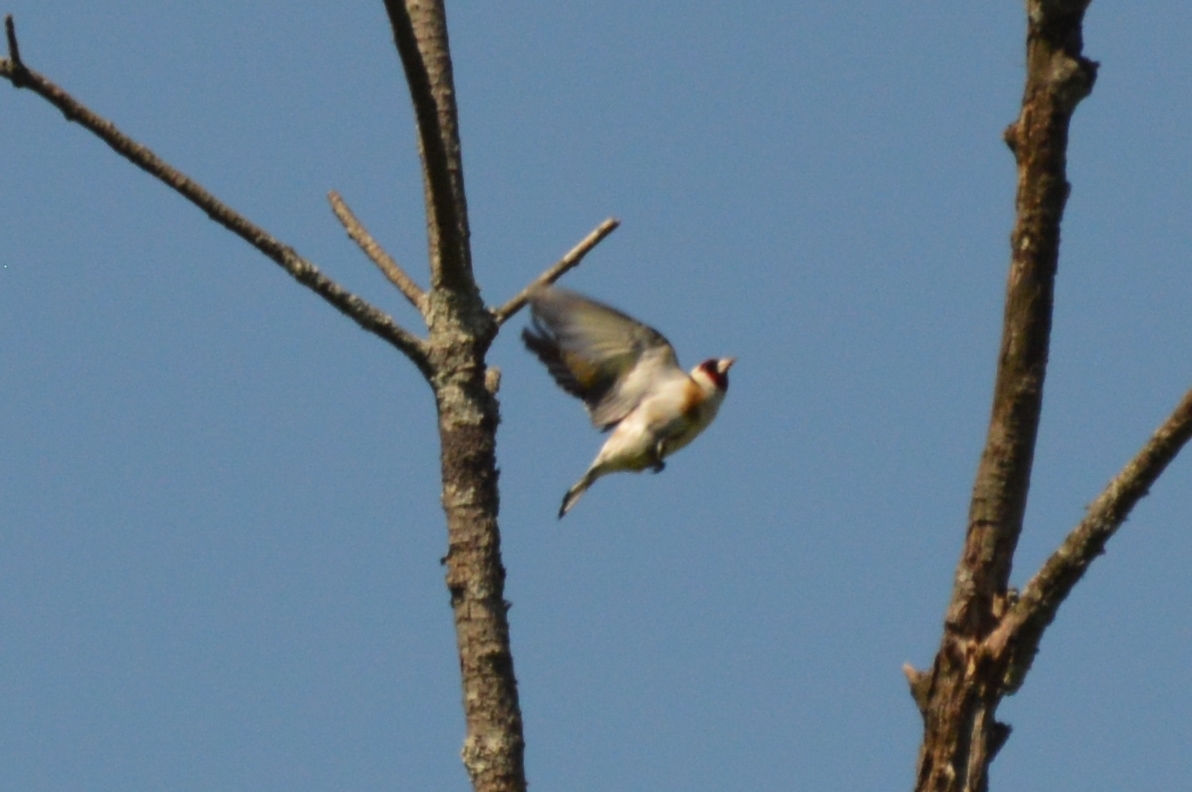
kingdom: Animalia
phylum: Chordata
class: Aves
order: Passeriformes
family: Fringillidae
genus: Carduelis
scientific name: Carduelis carduelis
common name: European goldfinch
